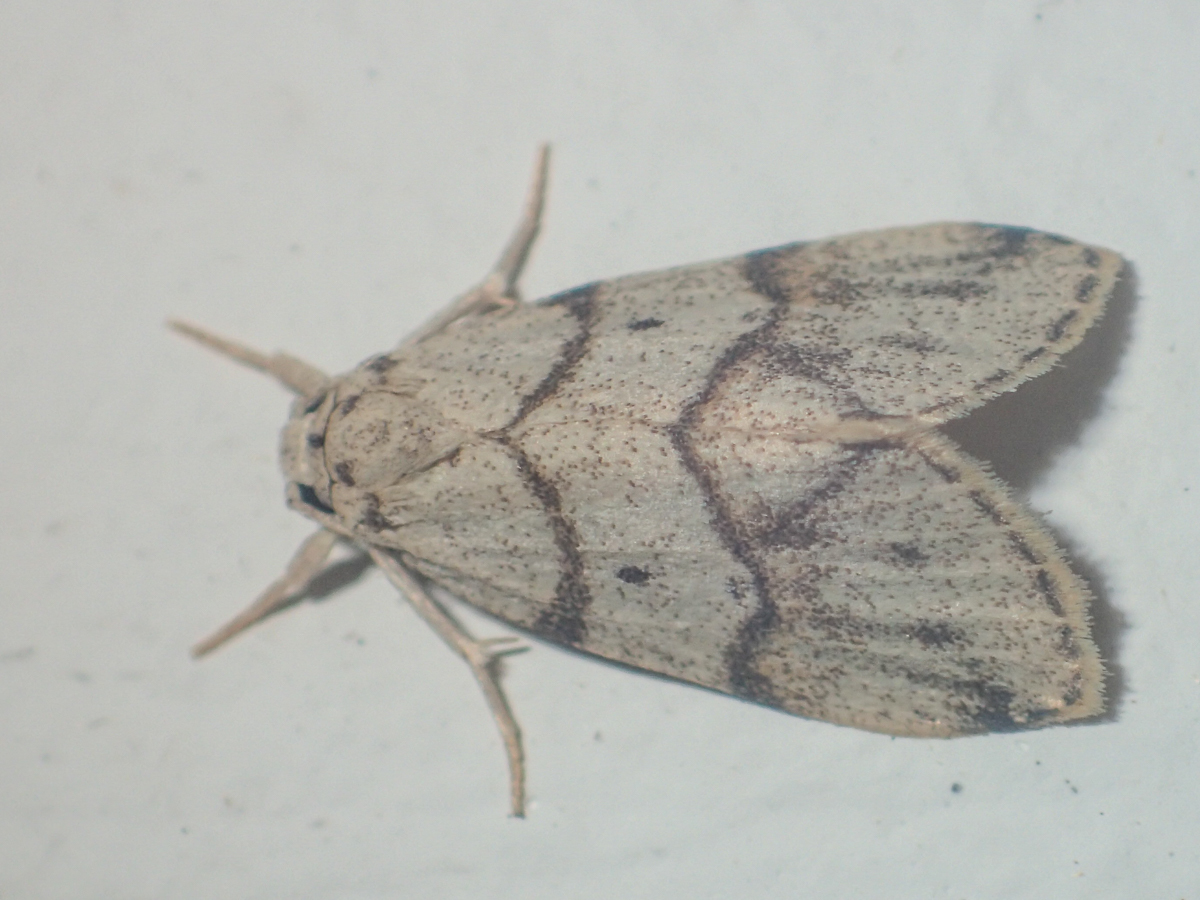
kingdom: Animalia
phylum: Arthropoda
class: Insecta
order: Lepidoptera
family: Erebidae
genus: Holocraspedon
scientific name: Holocraspedon bilineata
